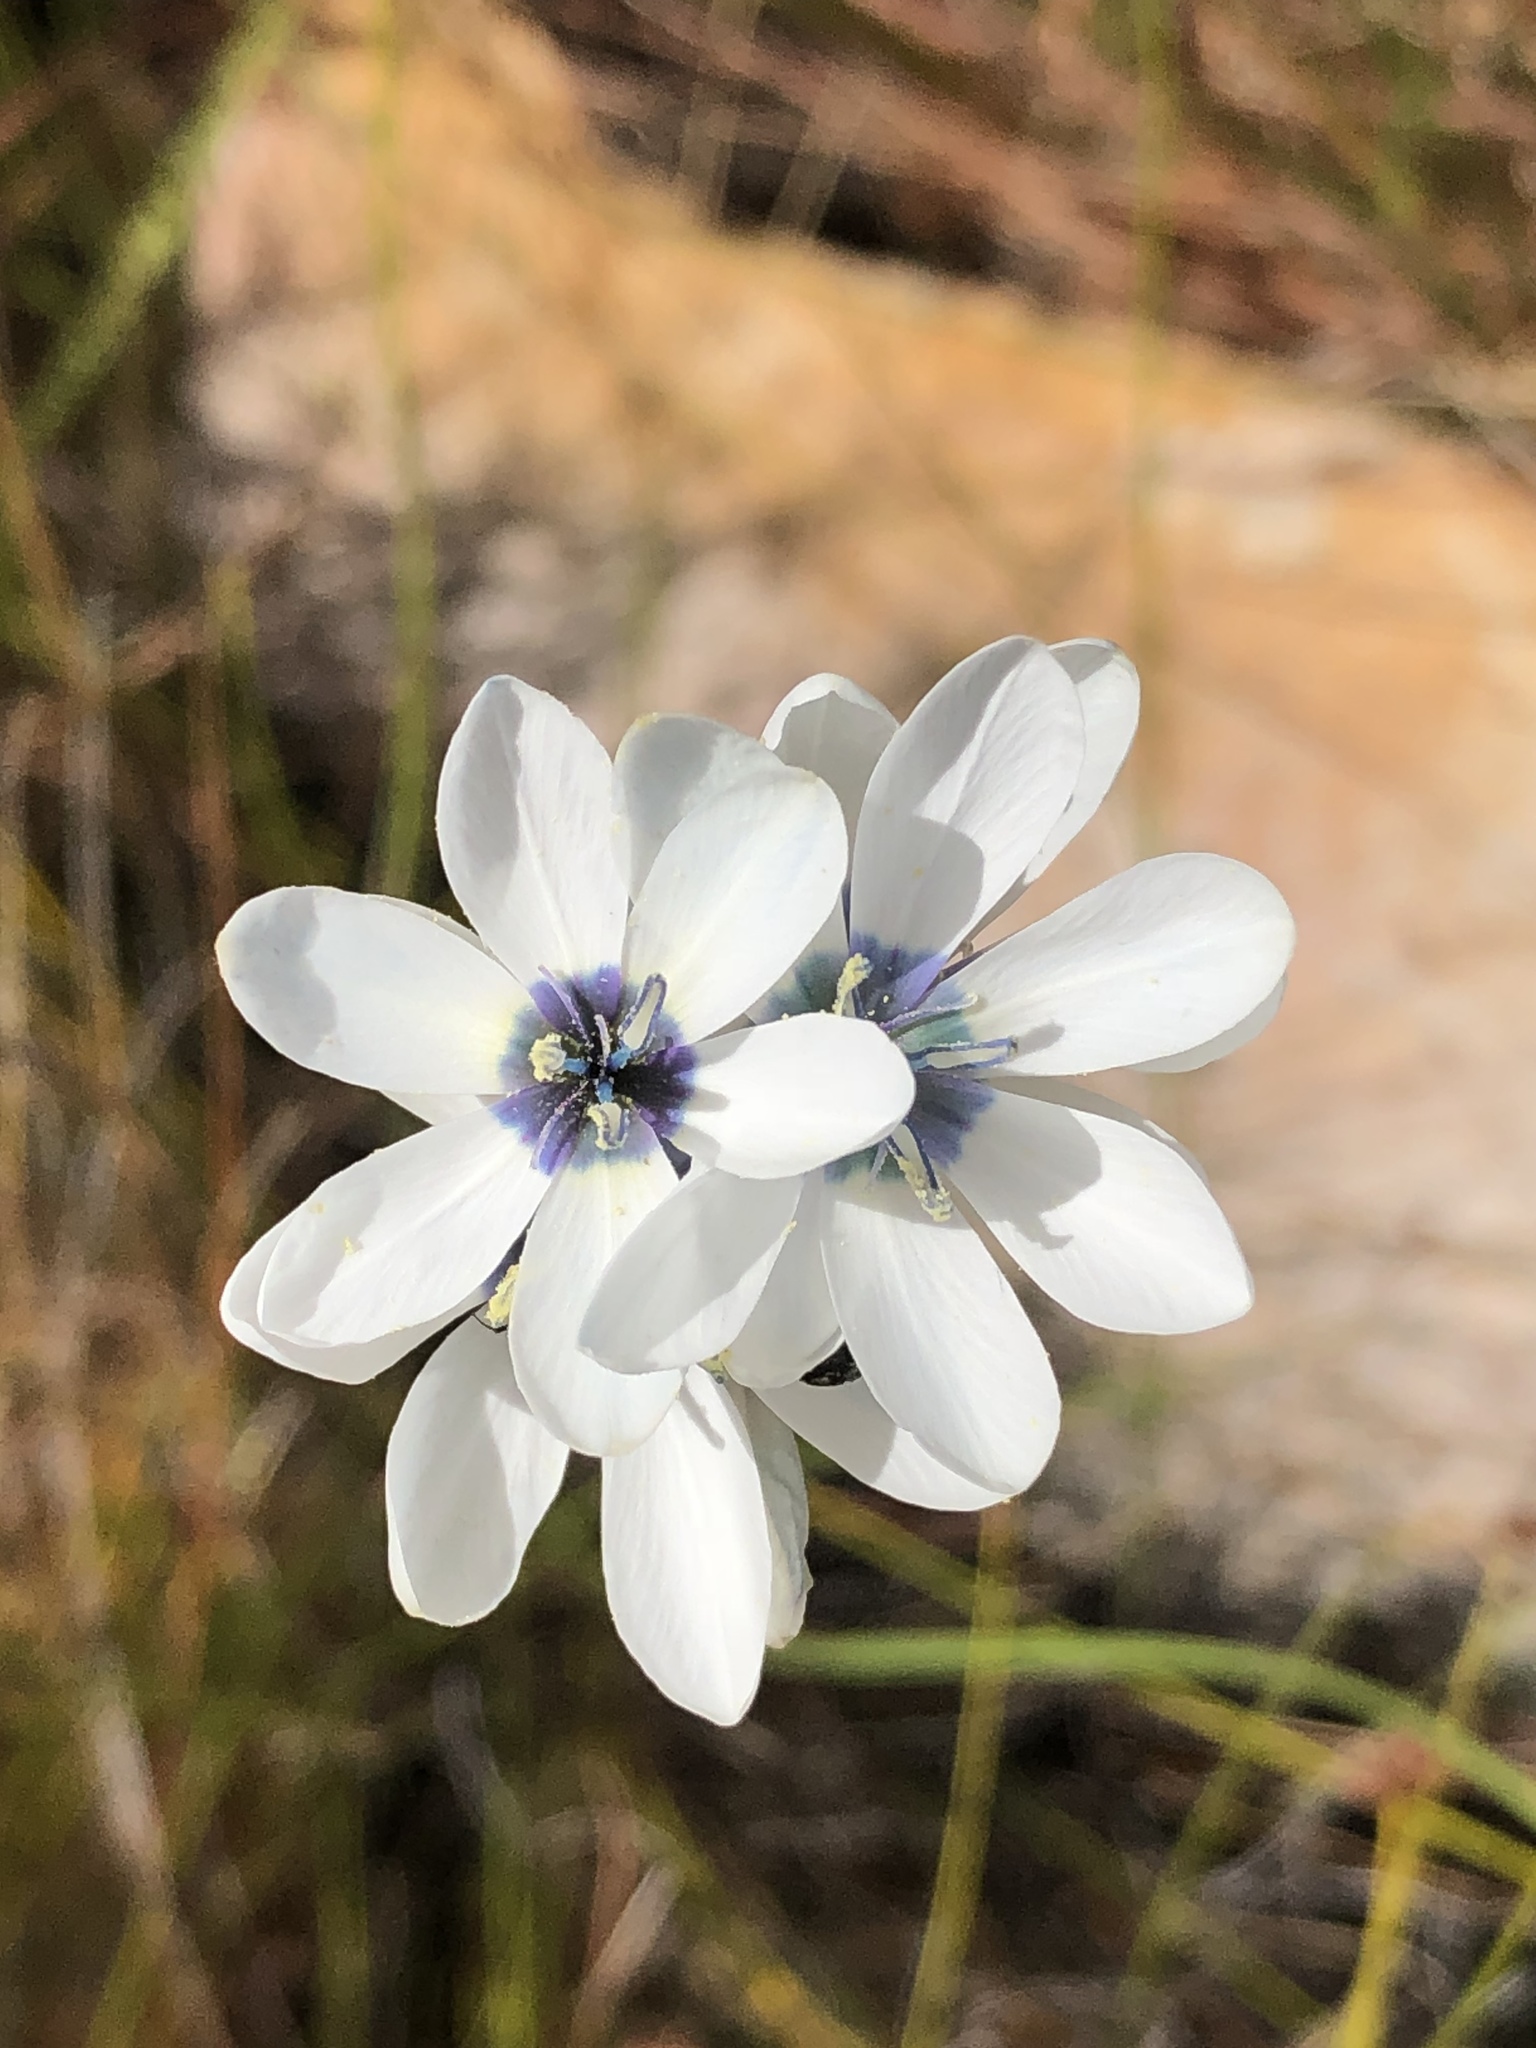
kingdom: Plantae
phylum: Tracheophyta
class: Liliopsida
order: Asparagales
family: Iridaceae
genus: Ixia
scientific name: Ixia polystachya
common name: White-and-yellow-flower cornlily
